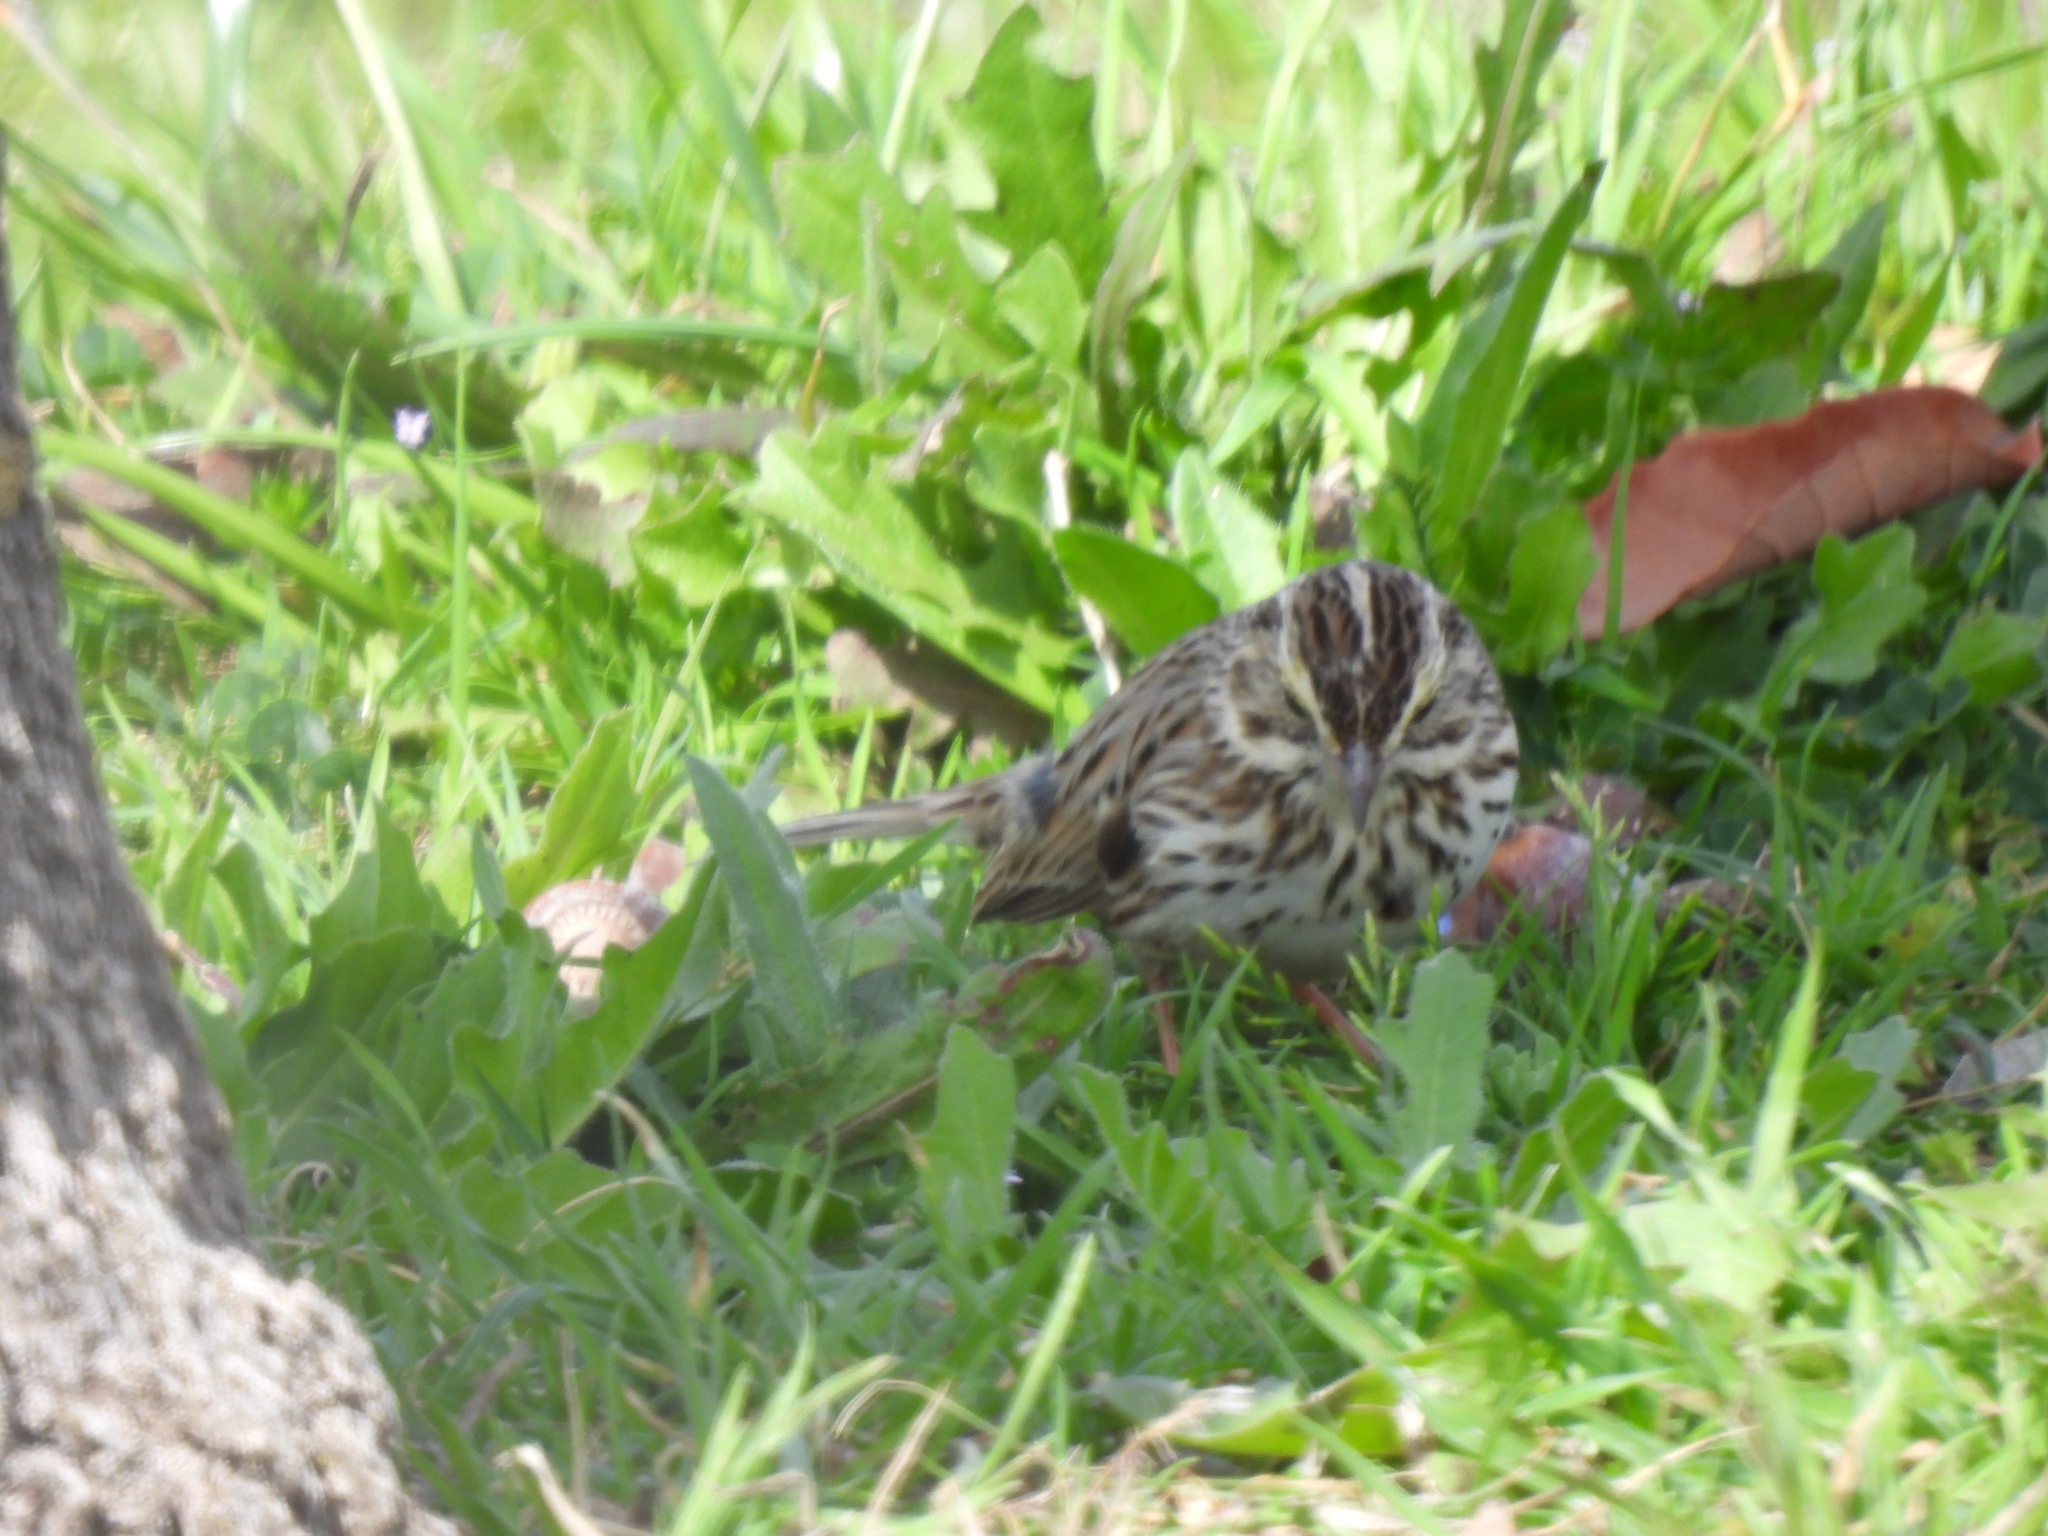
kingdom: Animalia
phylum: Chordata
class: Aves
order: Passeriformes
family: Passerellidae
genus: Passerculus
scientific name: Passerculus sandwichensis
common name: Savannah sparrow
